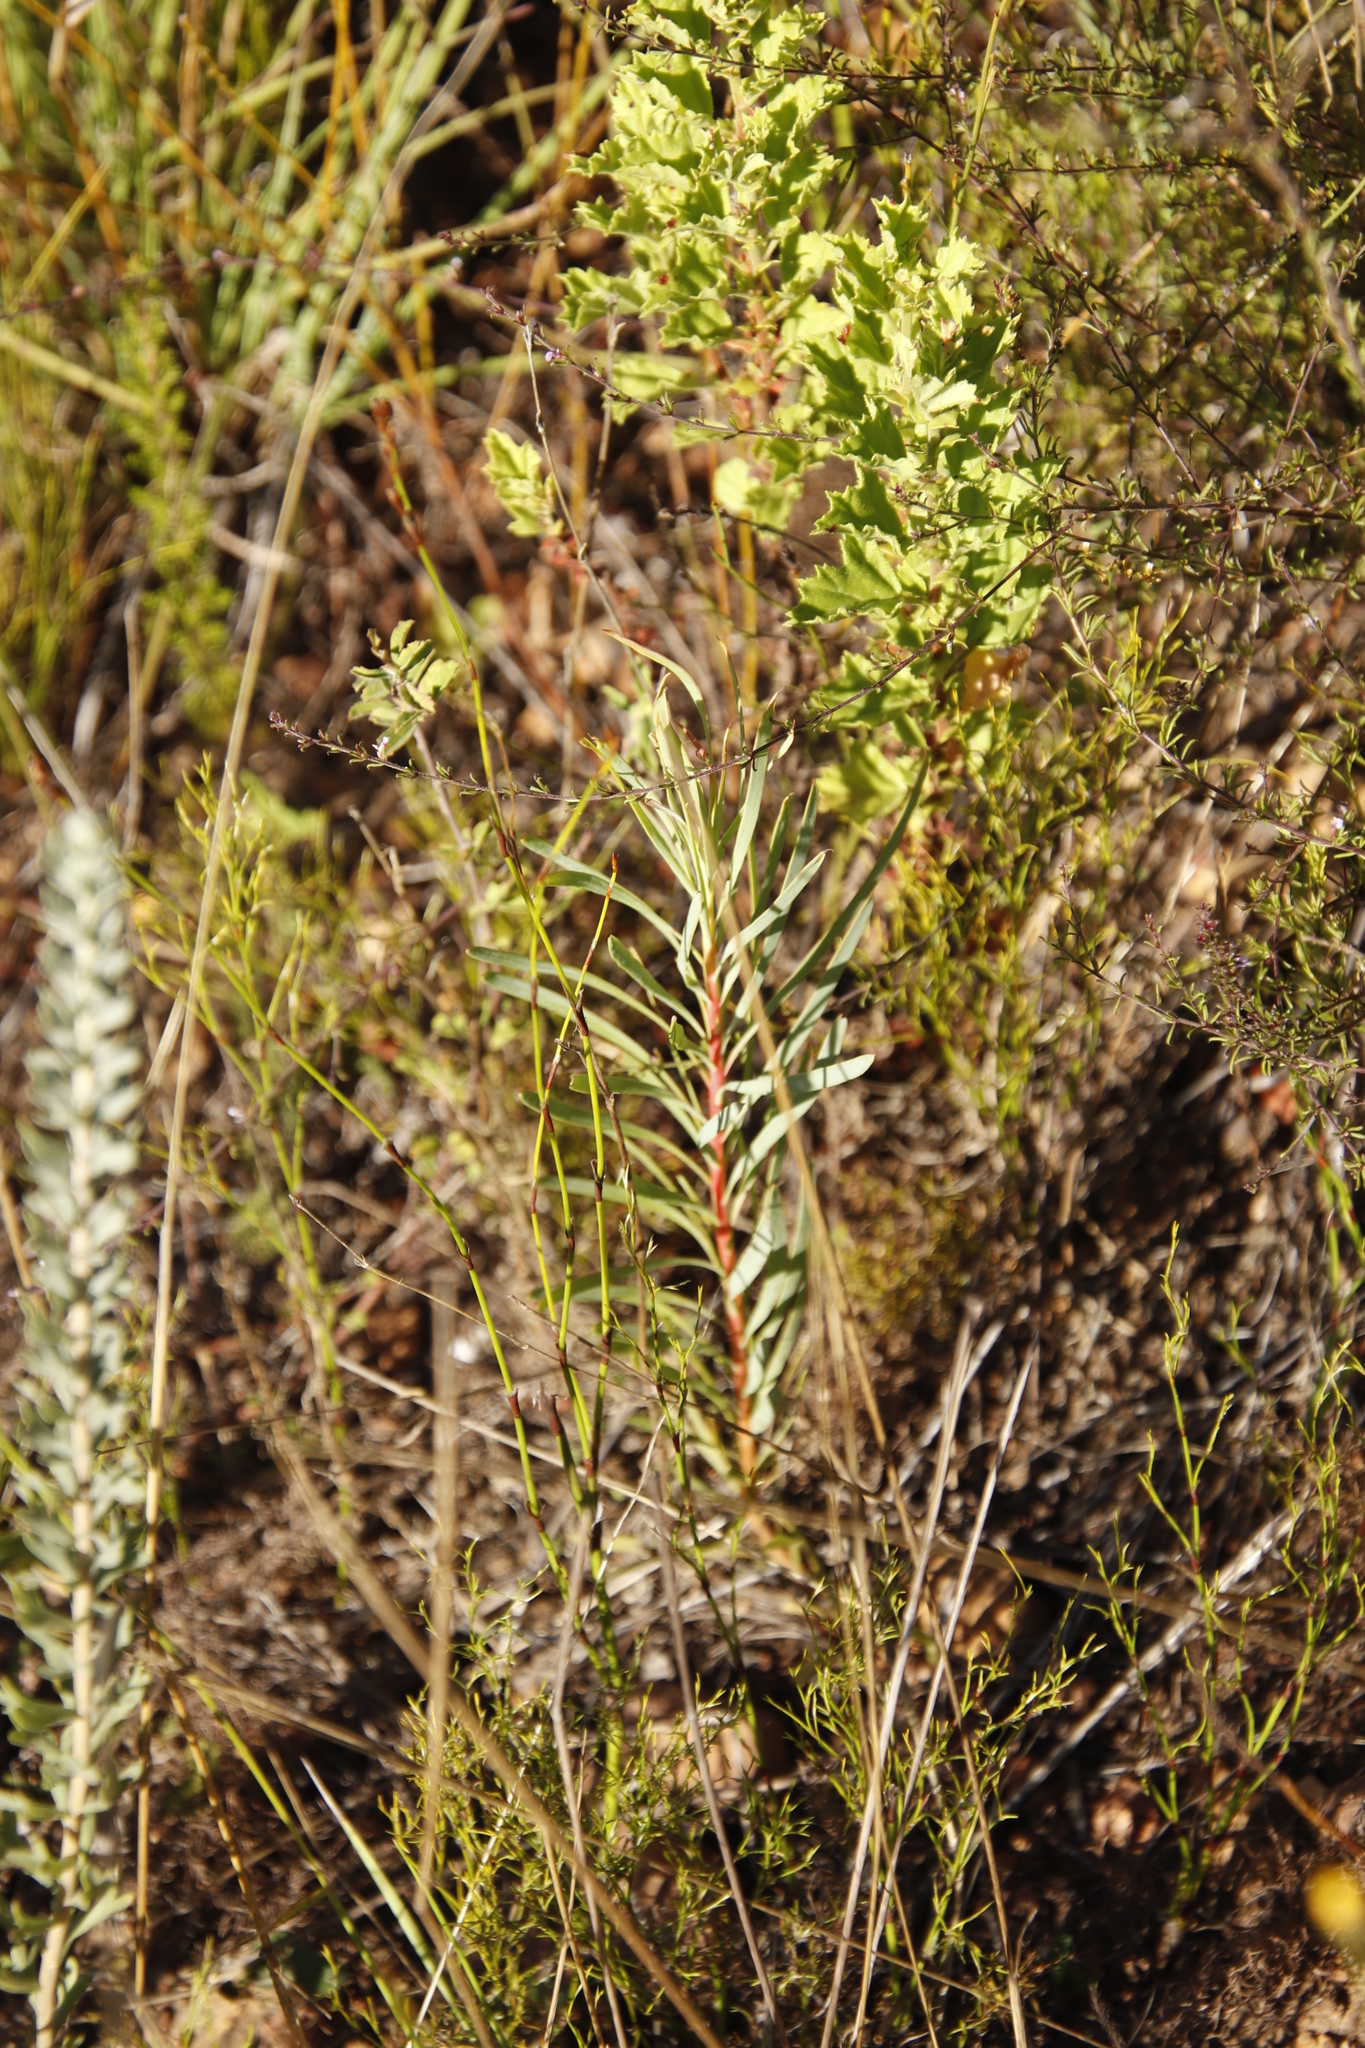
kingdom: Plantae
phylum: Tracheophyta
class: Magnoliopsida
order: Proteales
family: Proteaceae
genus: Protea
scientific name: Protea repens
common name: Sugarbush
